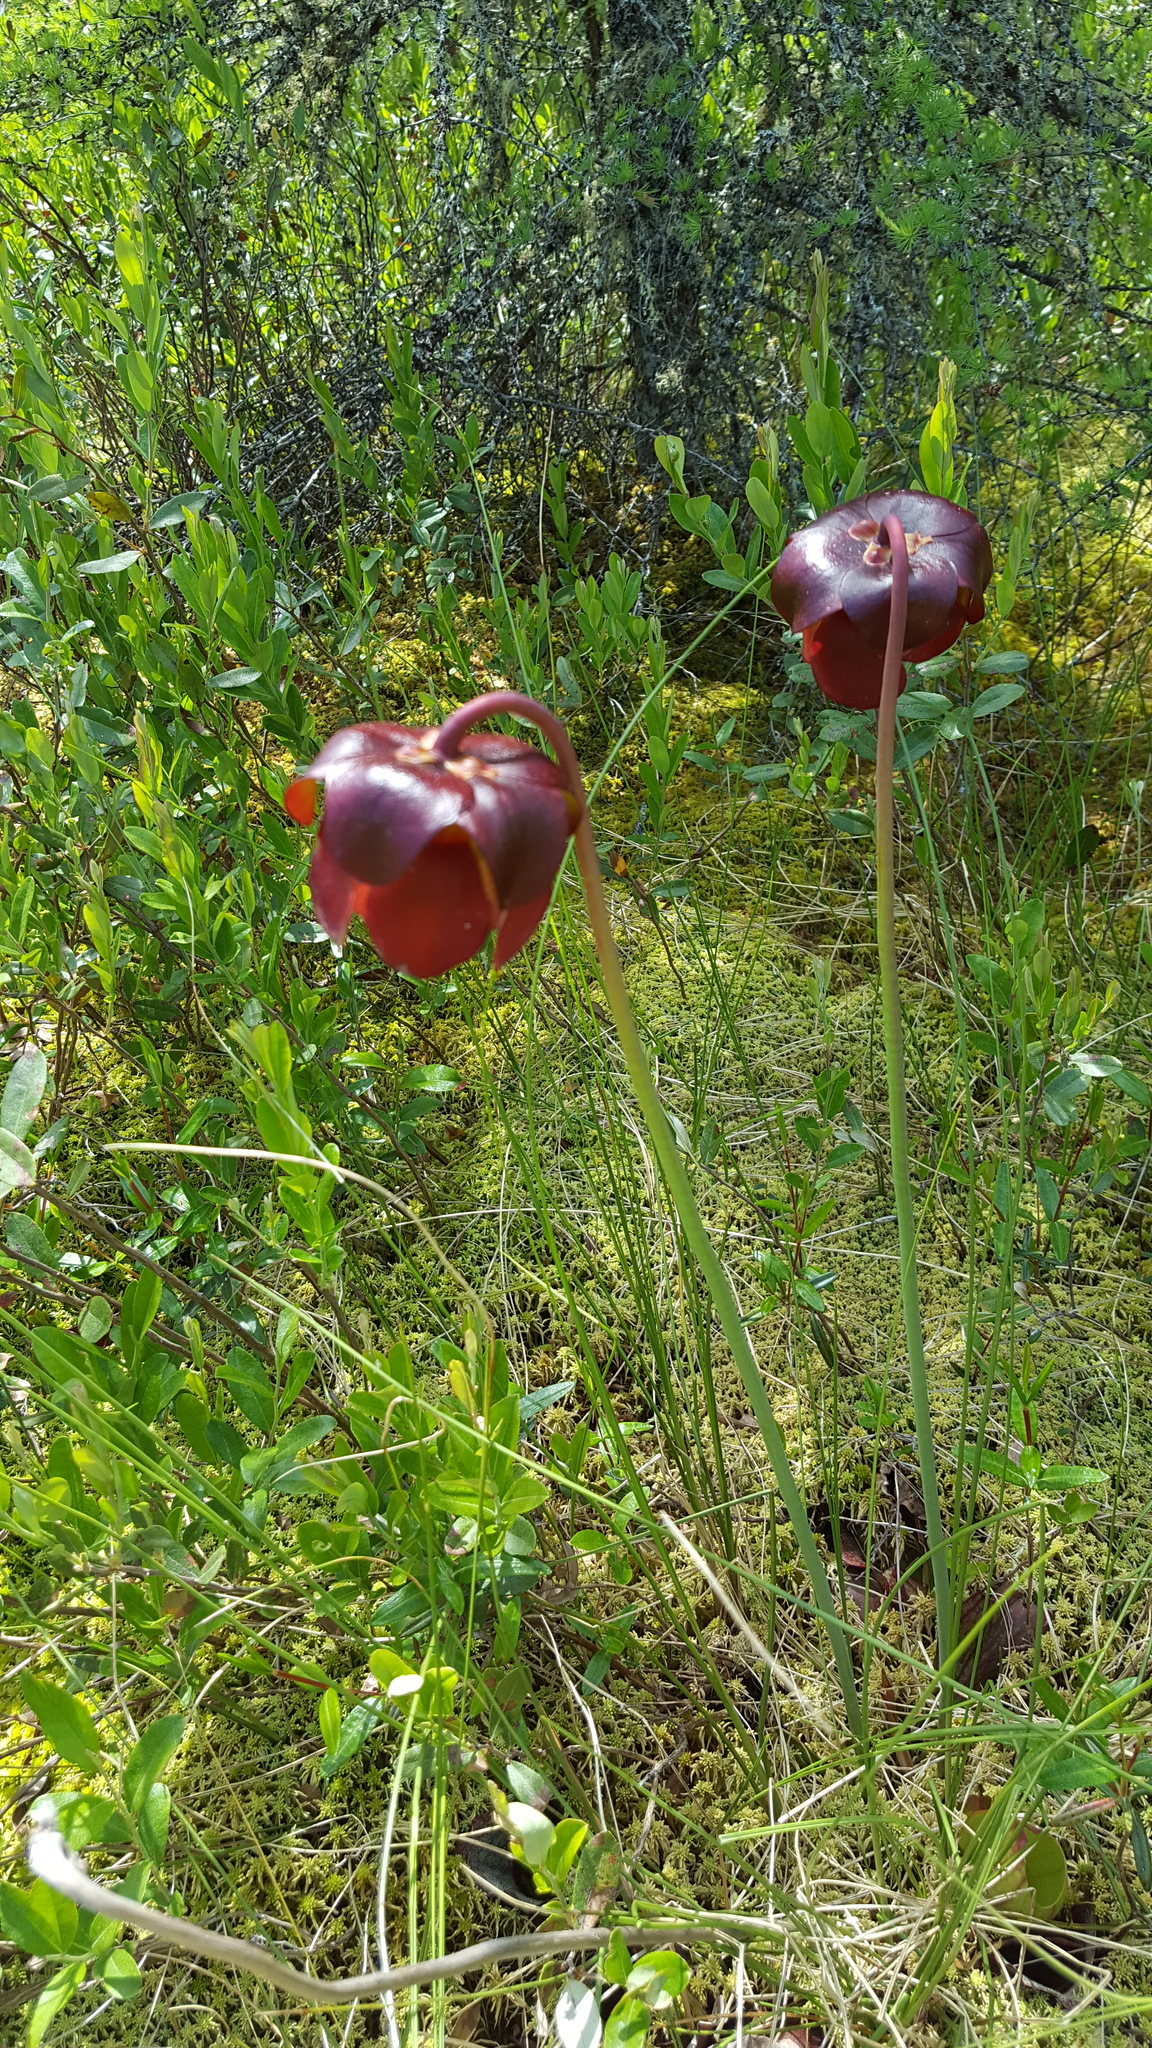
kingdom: Plantae
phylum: Tracheophyta
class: Magnoliopsida
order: Ericales
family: Sarraceniaceae
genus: Sarracenia
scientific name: Sarracenia purpurea
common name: Pitcherplant
